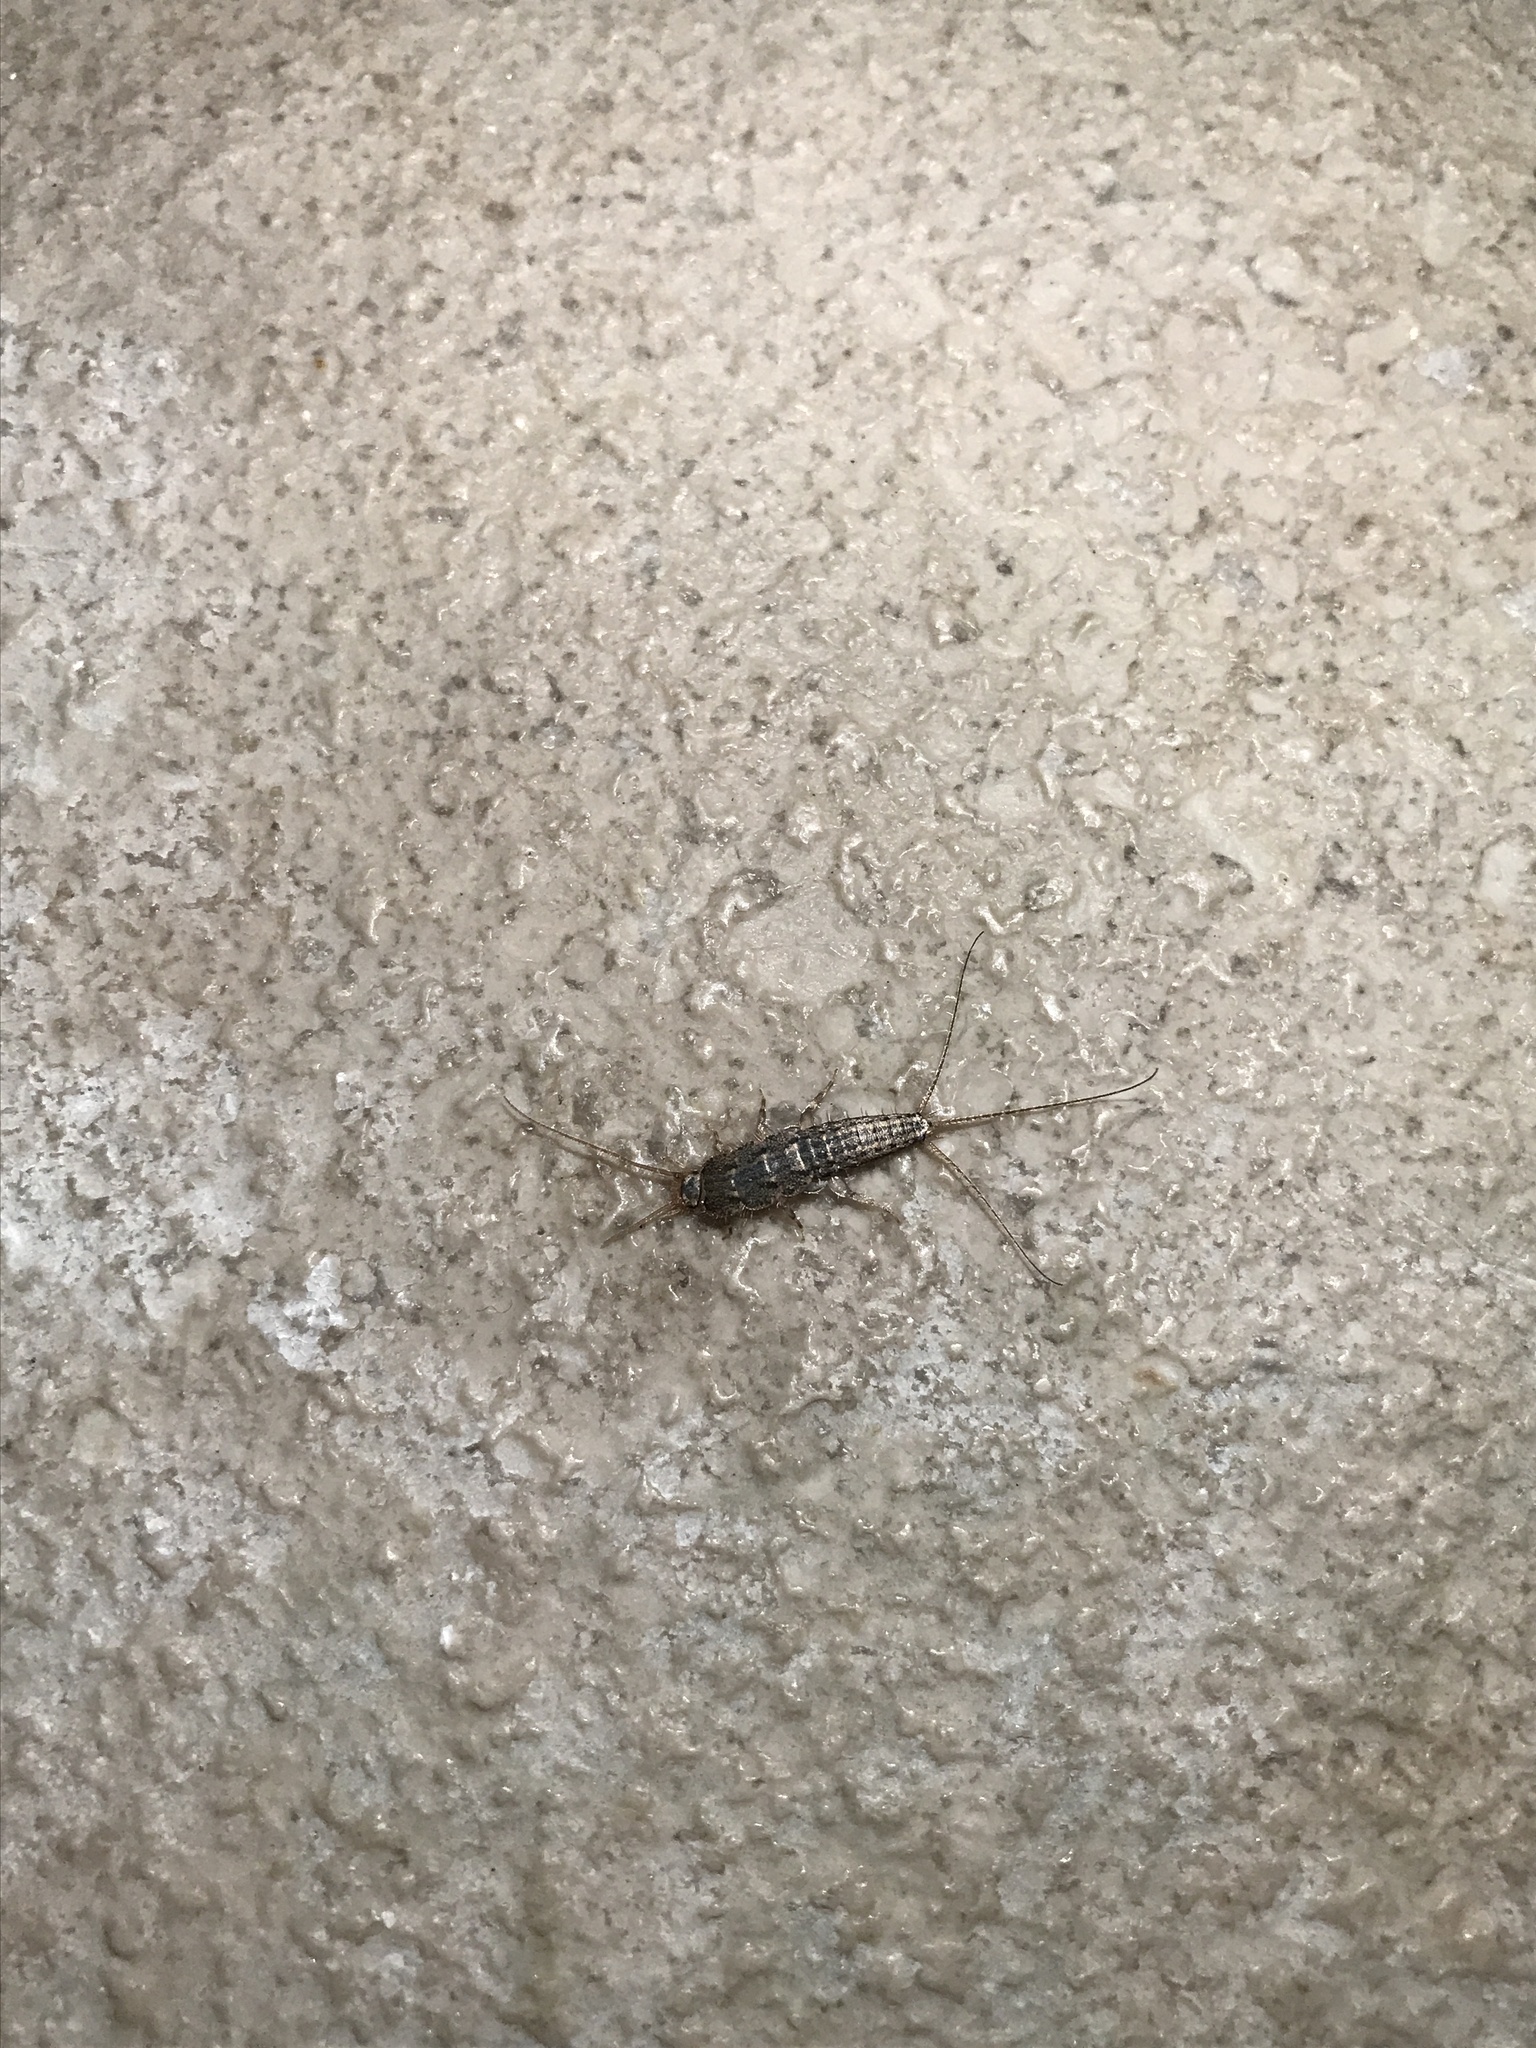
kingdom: Animalia
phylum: Arthropoda
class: Insecta
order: Zygentoma
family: Lepismatidae
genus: Ctenolepisma
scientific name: Ctenolepisma lineata
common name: Four-lined silverfish
